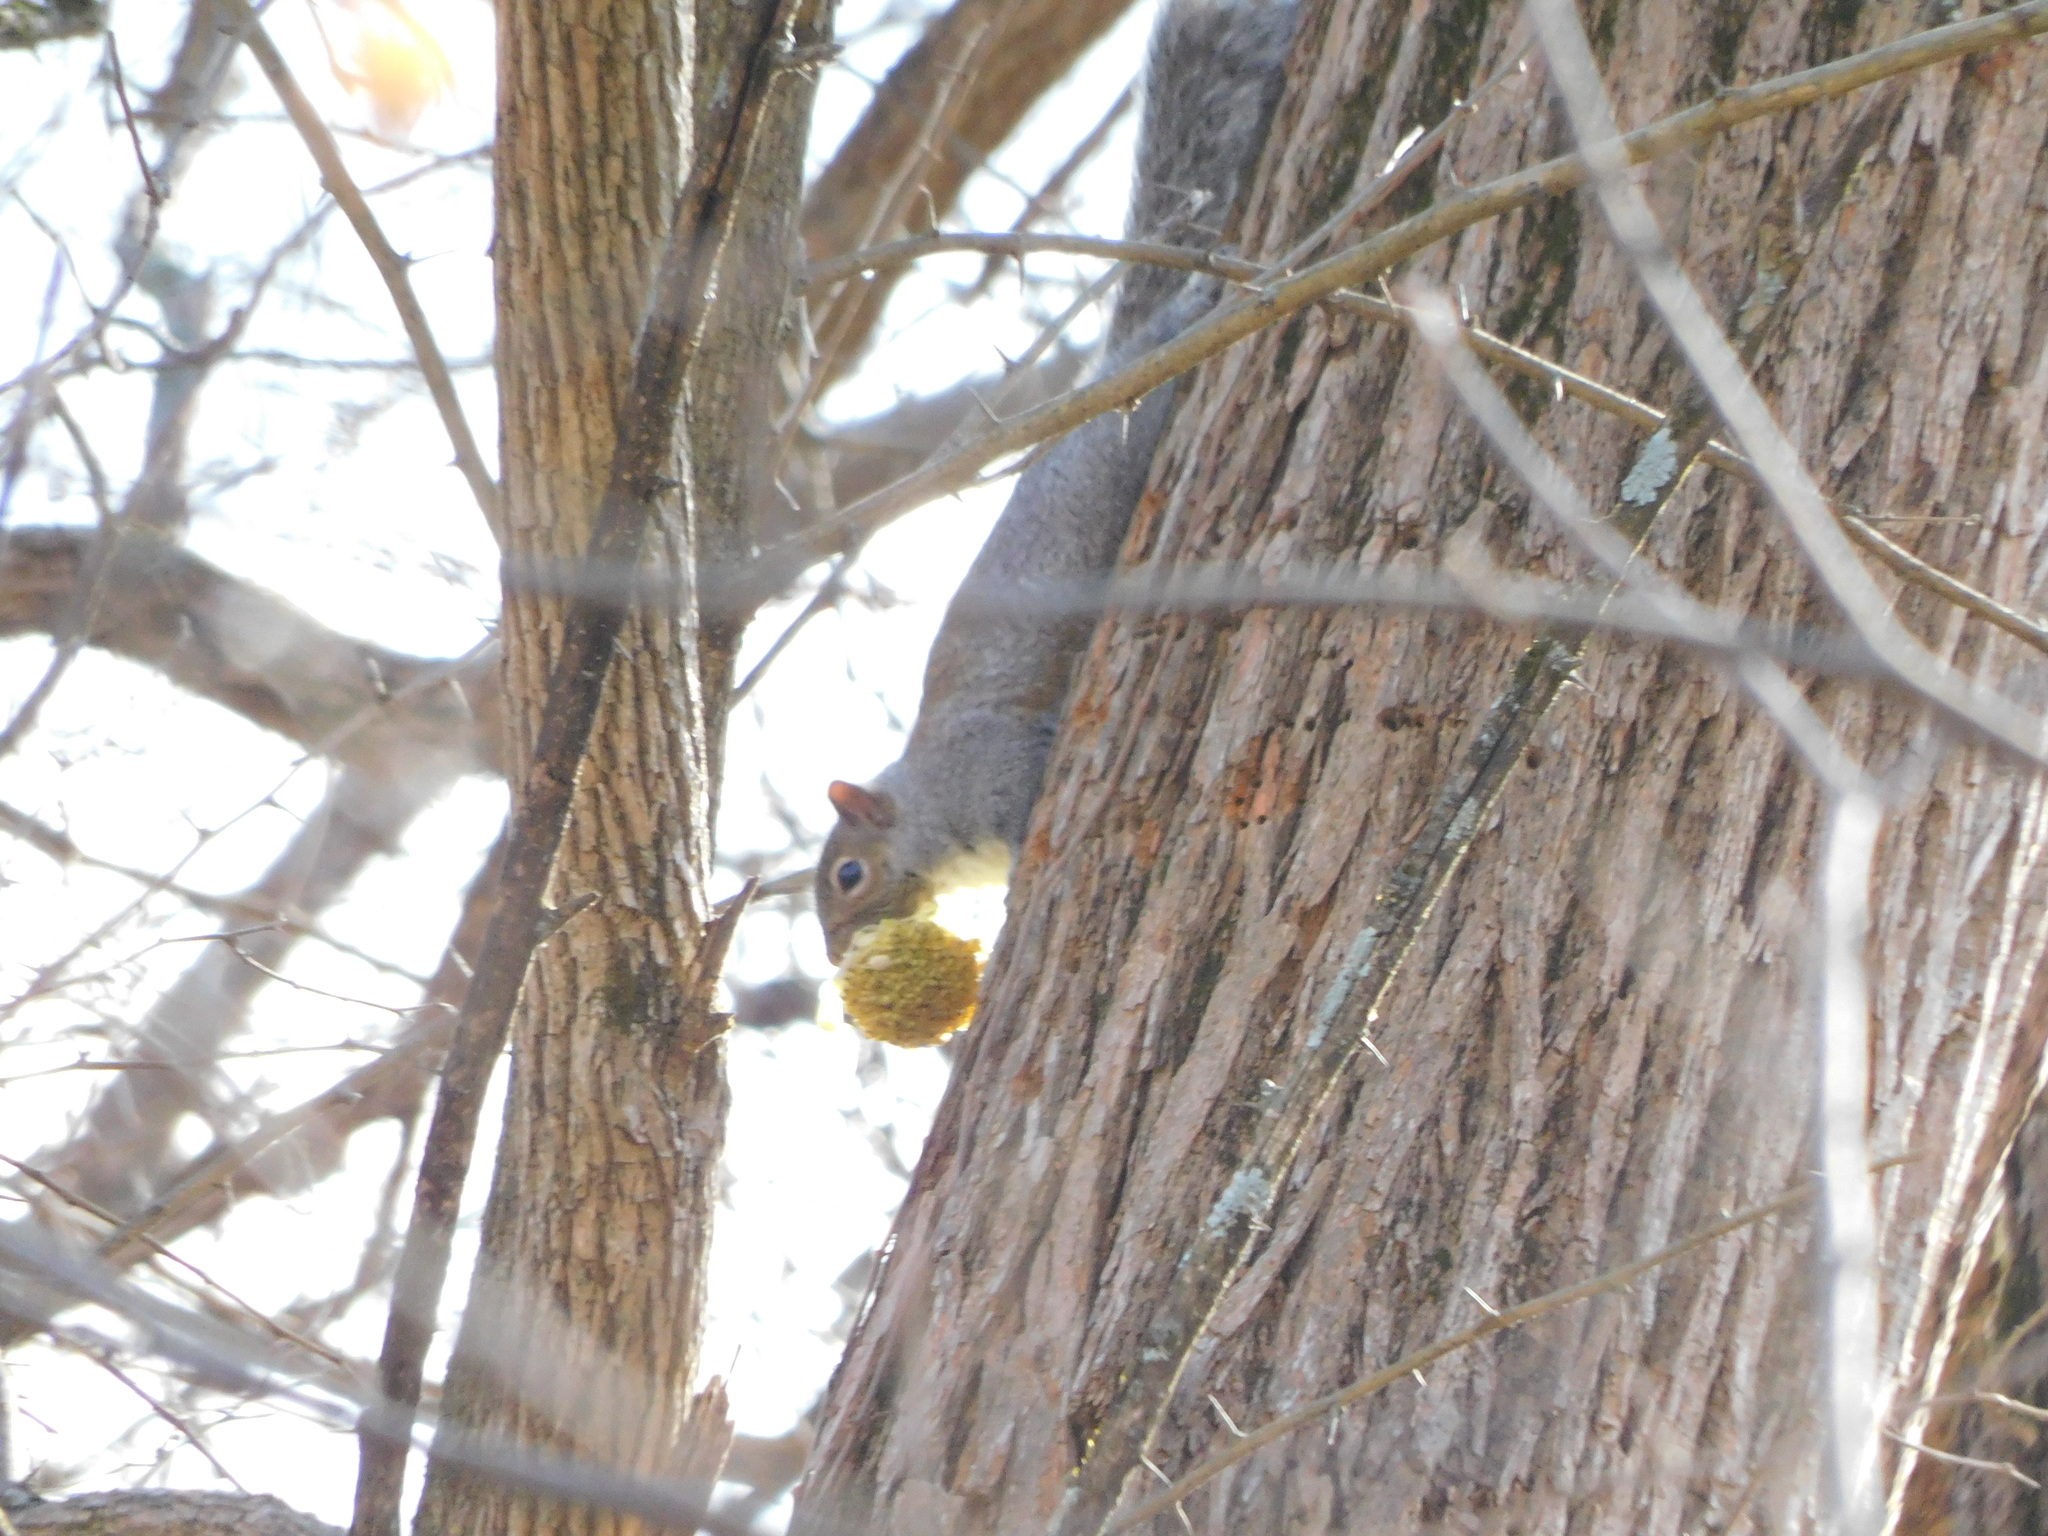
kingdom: Animalia
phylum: Chordata
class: Mammalia
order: Rodentia
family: Sciuridae
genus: Sciurus
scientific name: Sciurus carolinensis
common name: Eastern gray squirrel
